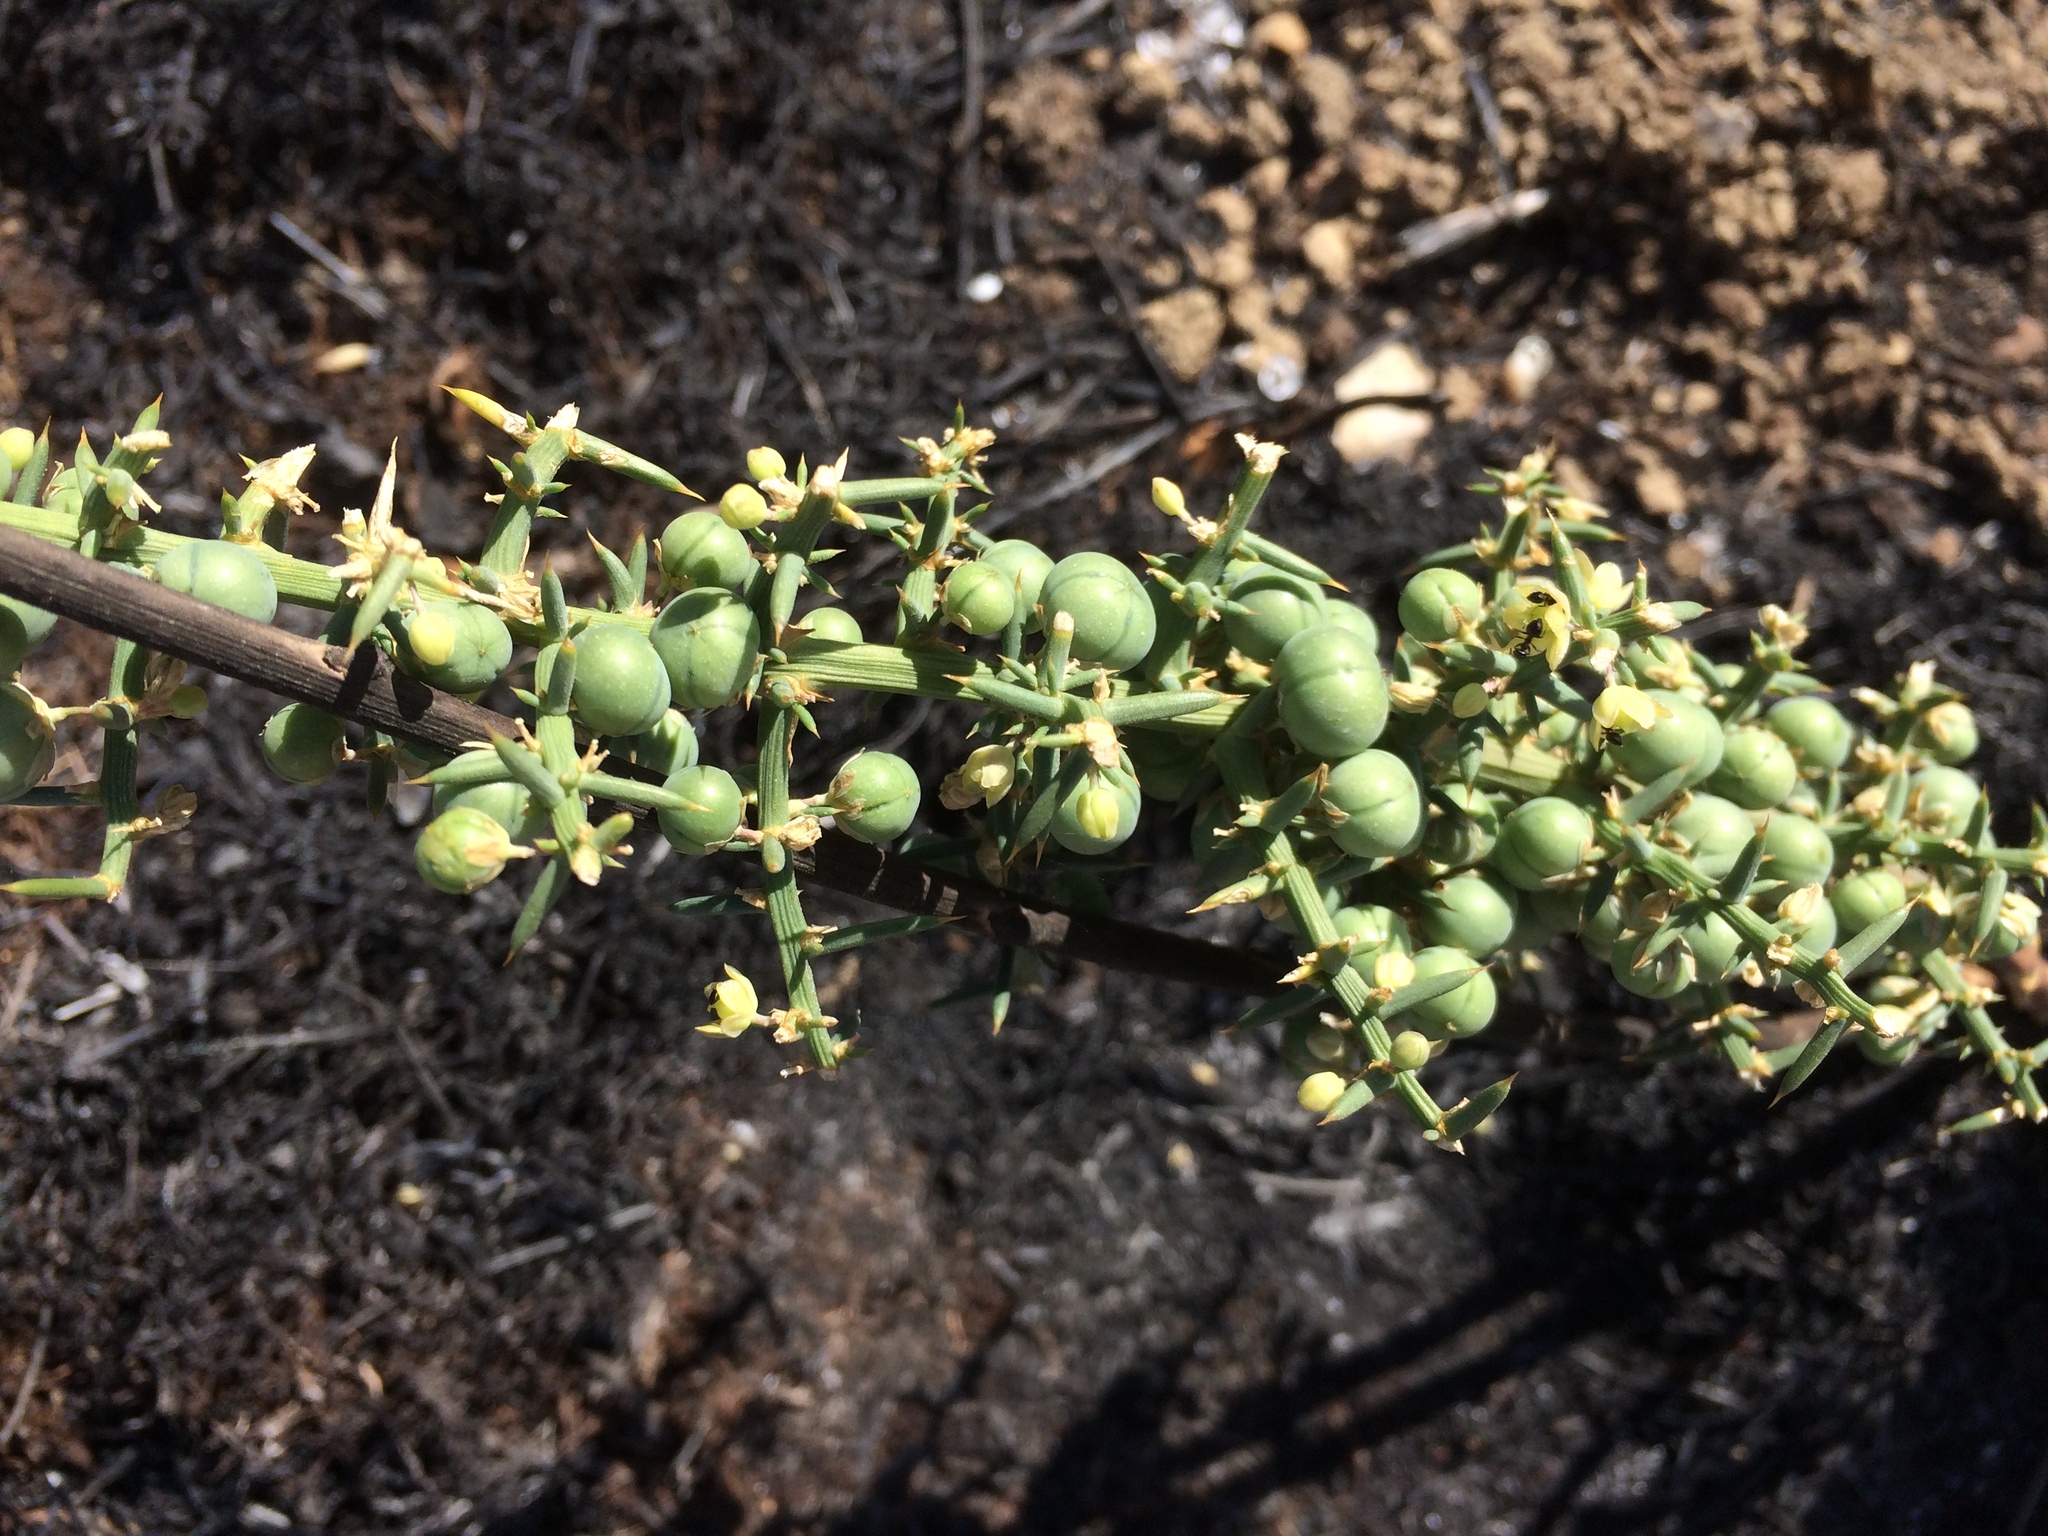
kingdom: Plantae
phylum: Tracheophyta
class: Liliopsida
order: Asparagales
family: Asparagaceae
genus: Asparagus
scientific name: Asparagus aphyllus
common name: Mediterranean asparagus
